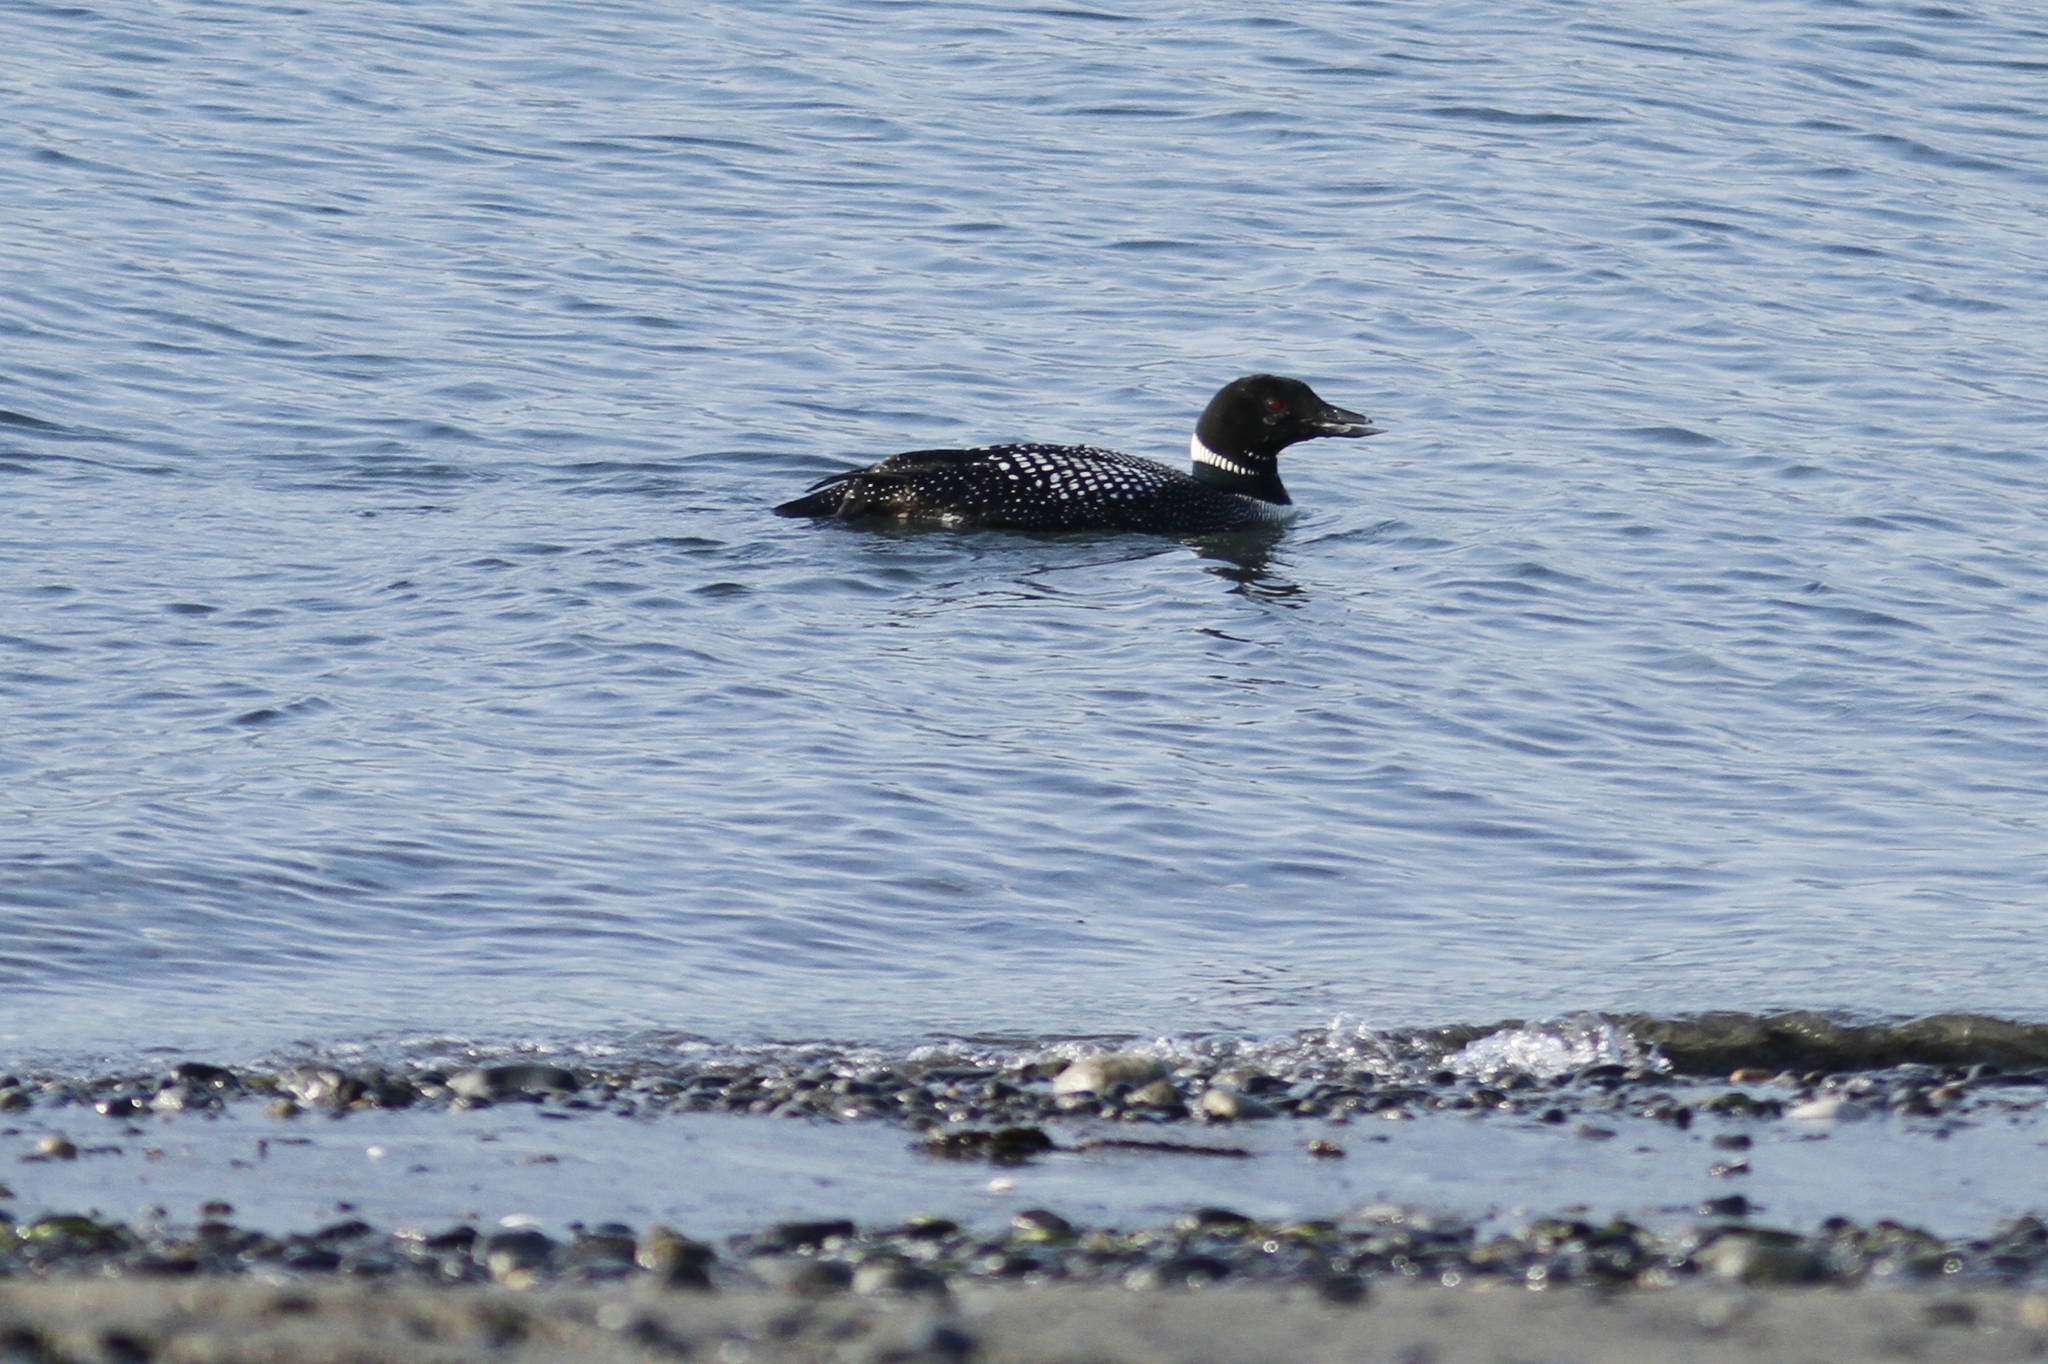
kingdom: Animalia
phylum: Chordata
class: Aves
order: Gaviiformes
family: Gaviidae
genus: Gavia
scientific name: Gavia immer
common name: Common loon
